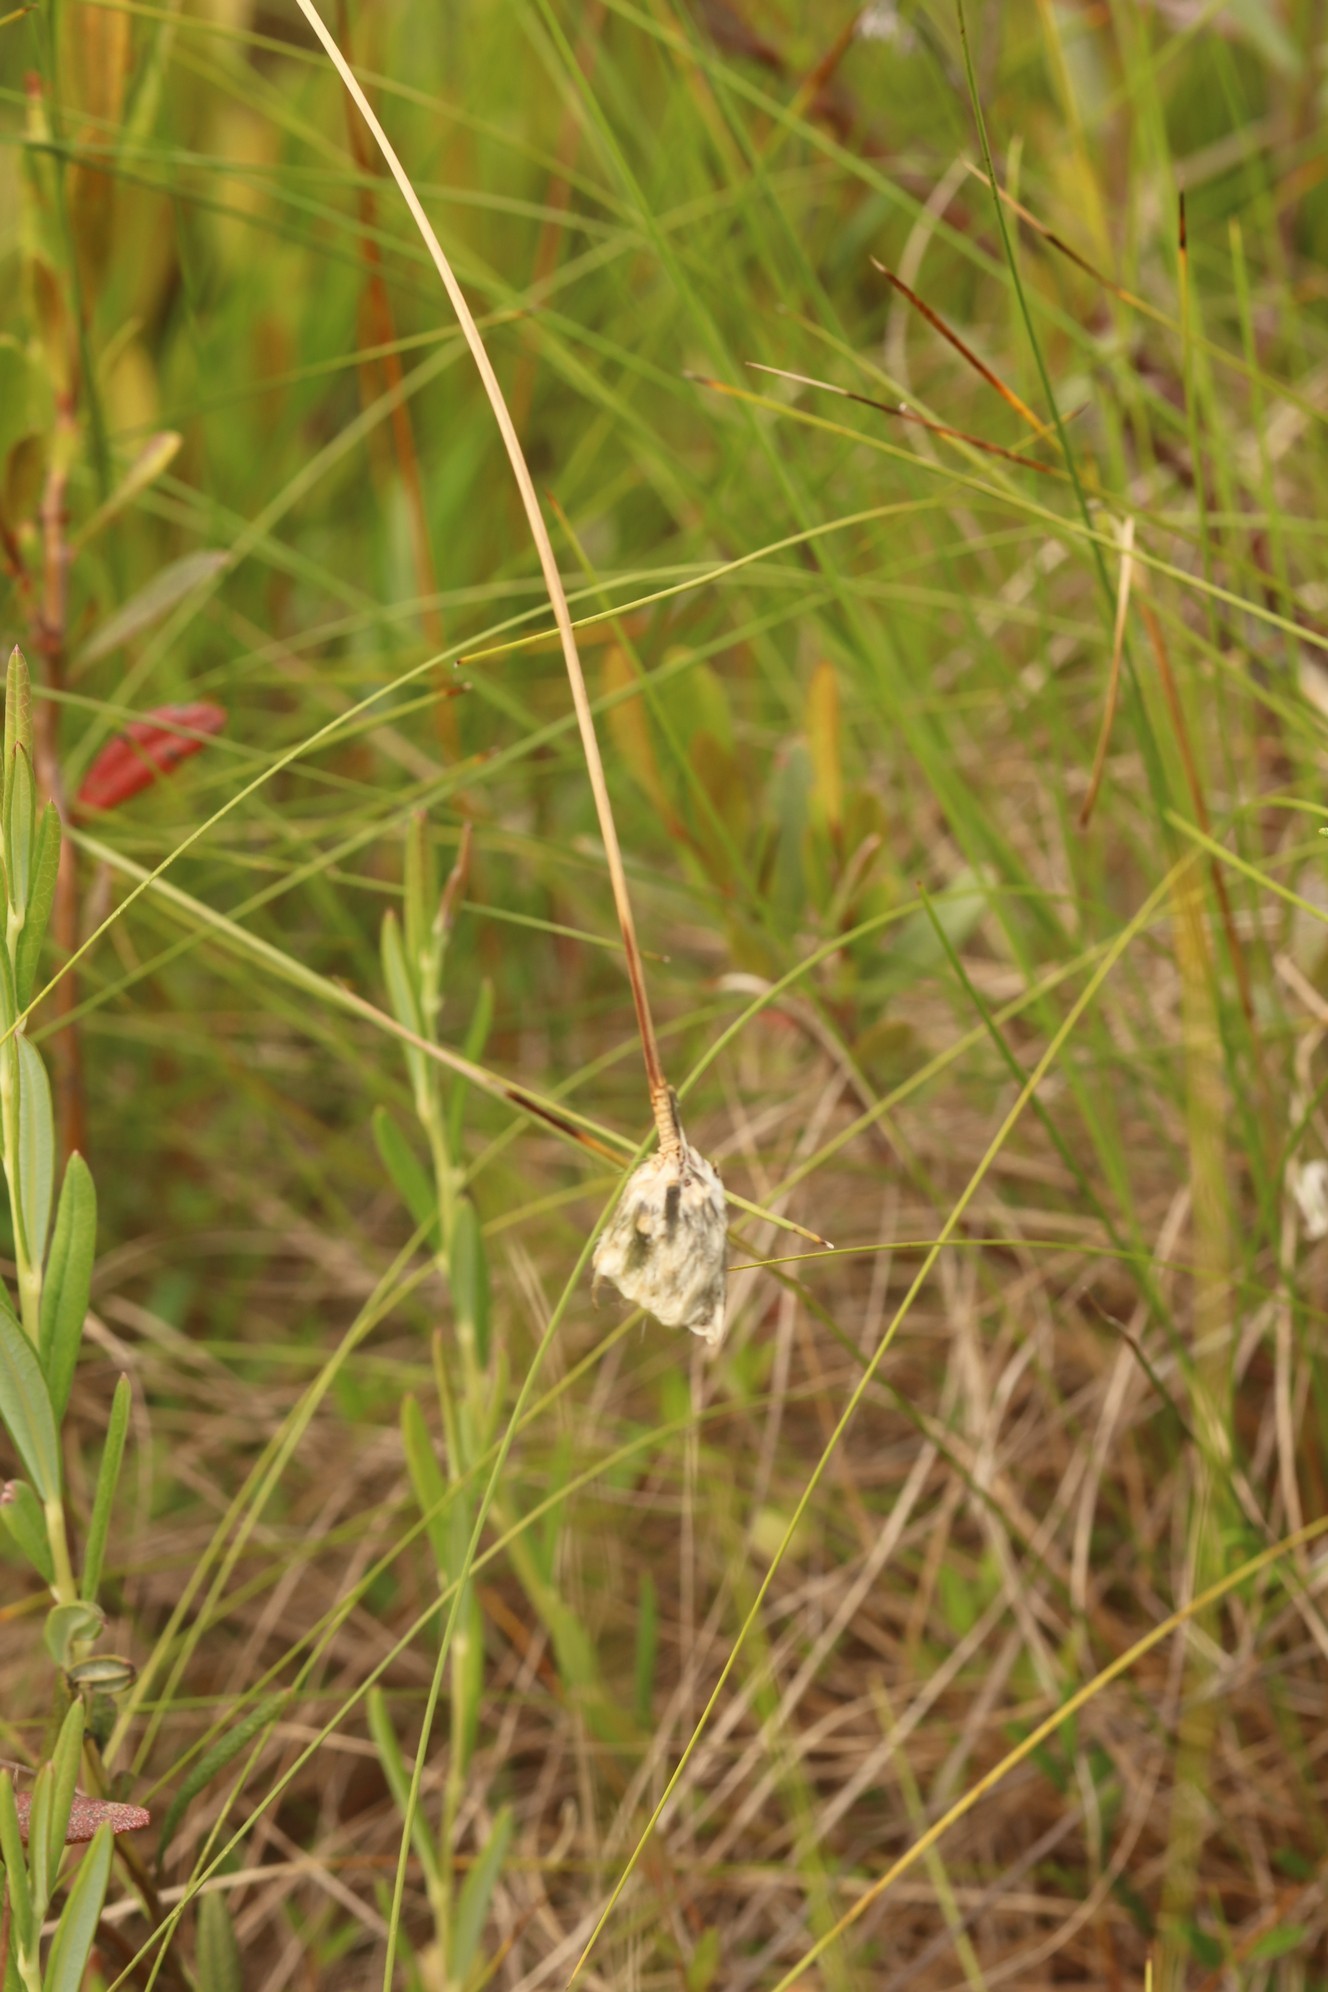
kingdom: Plantae
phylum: Tracheophyta
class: Liliopsida
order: Poales
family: Cyperaceae
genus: Eriophorum
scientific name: Eriophorum vaginatum
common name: Hare's-tail cottongrass
